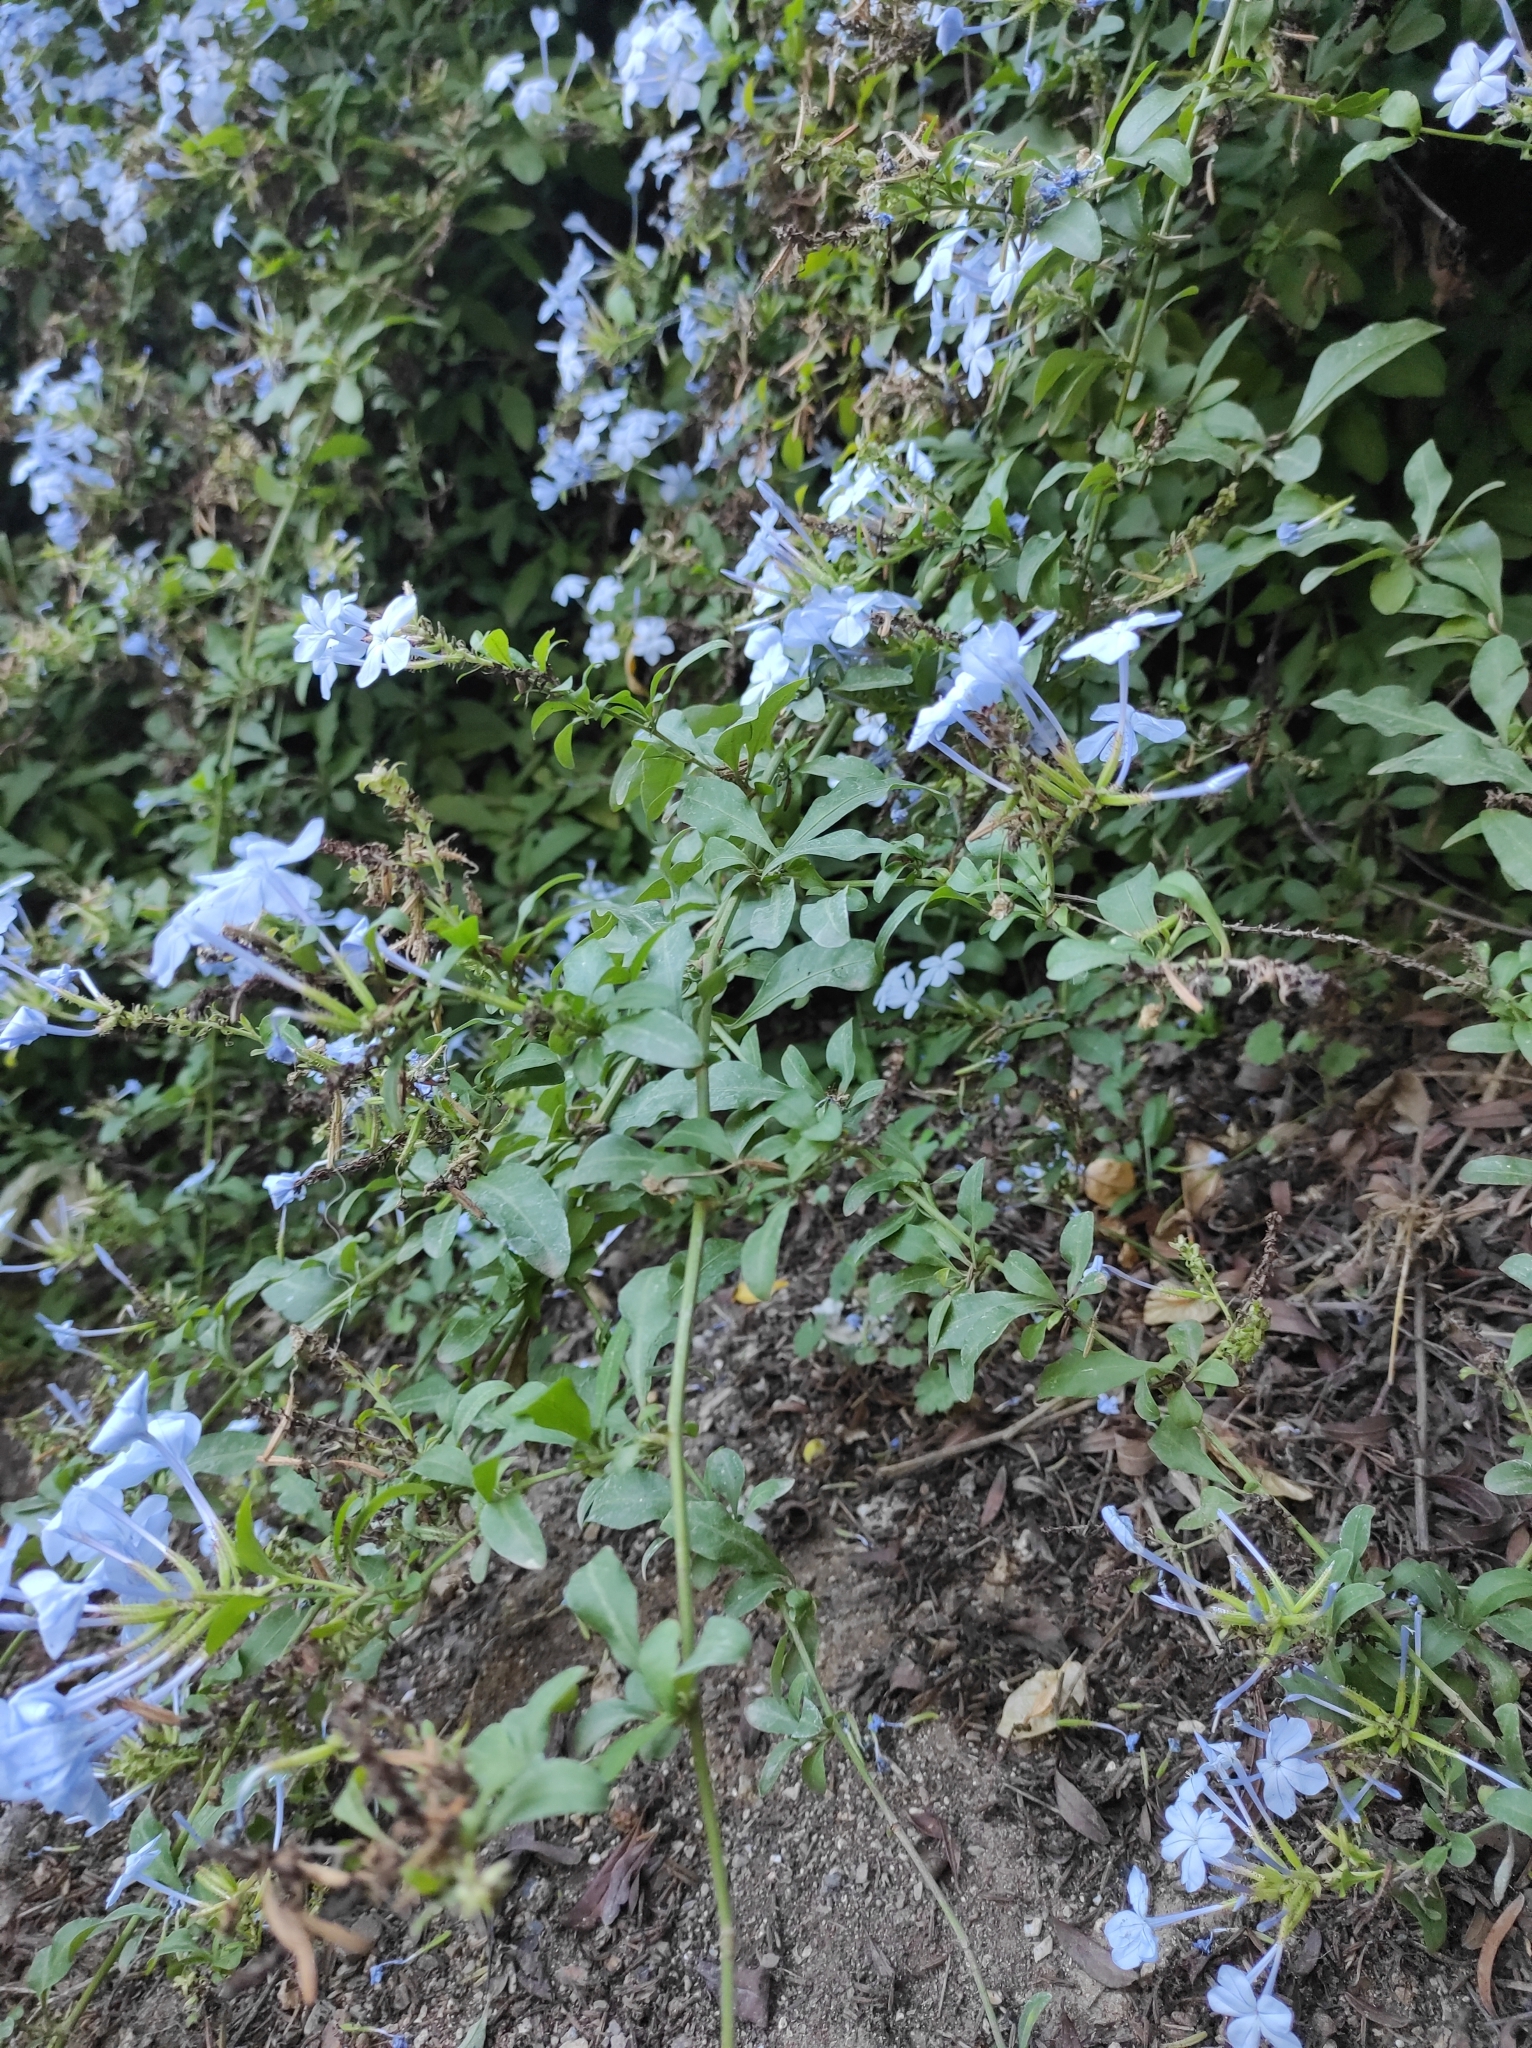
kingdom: Plantae
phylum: Tracheophyta
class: Magnoliopsida
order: Caryophyllales
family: Plumbaginaceae
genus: Plumbago
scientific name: Plumbago auriculata
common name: Cape leadwort
